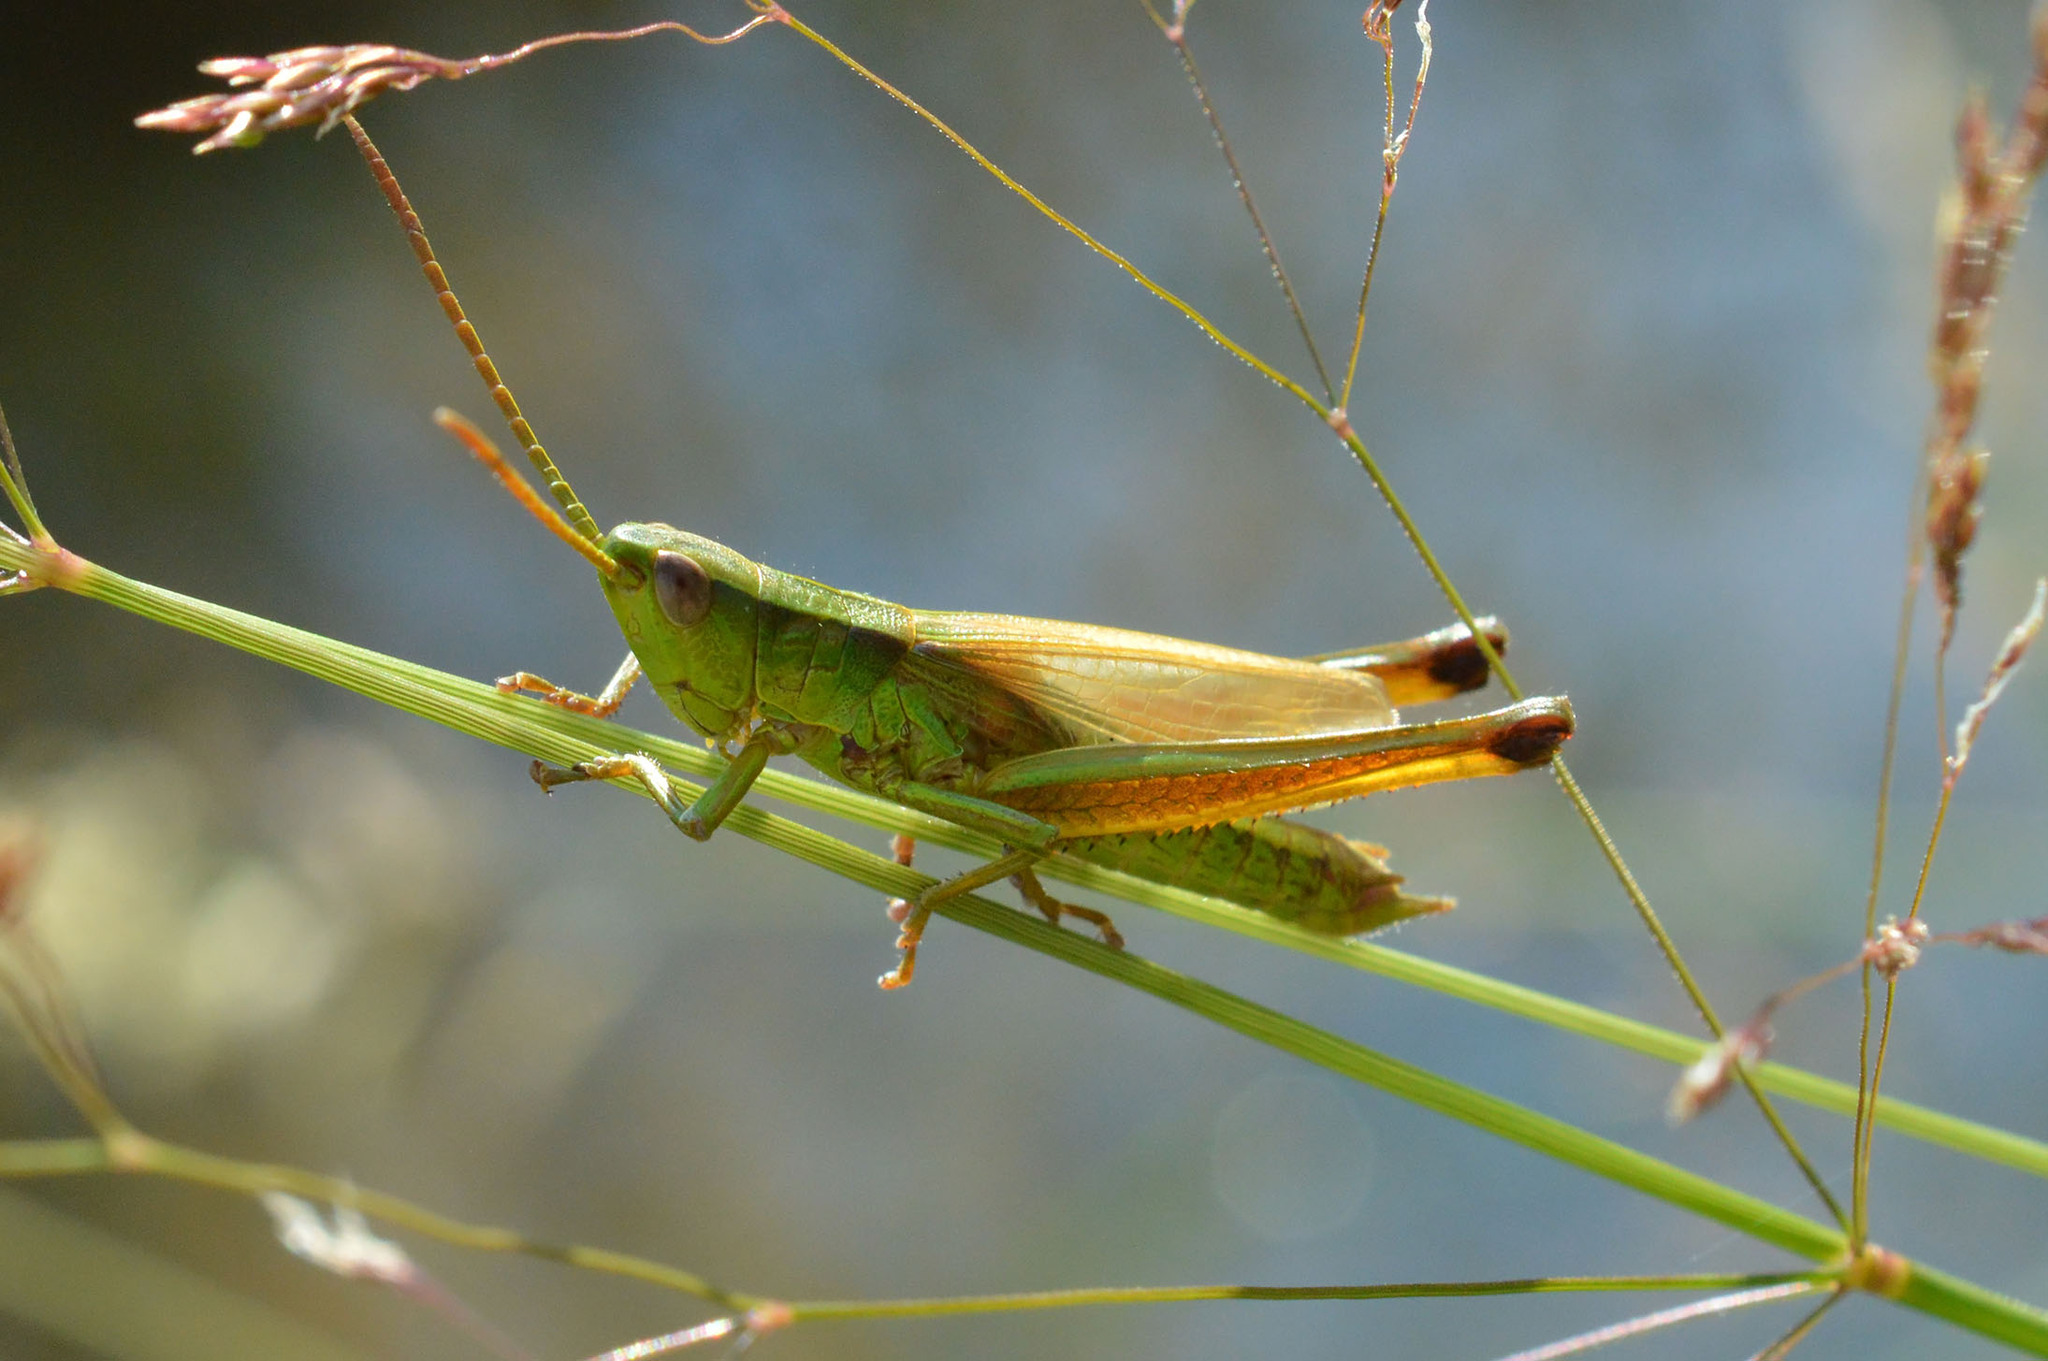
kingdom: Animalia
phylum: Arthropoda
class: Insecta
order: Orthoptera
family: Acrididae
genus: Chrysochraon
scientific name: Chrysochraon dispar
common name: Large gold grasshopper
